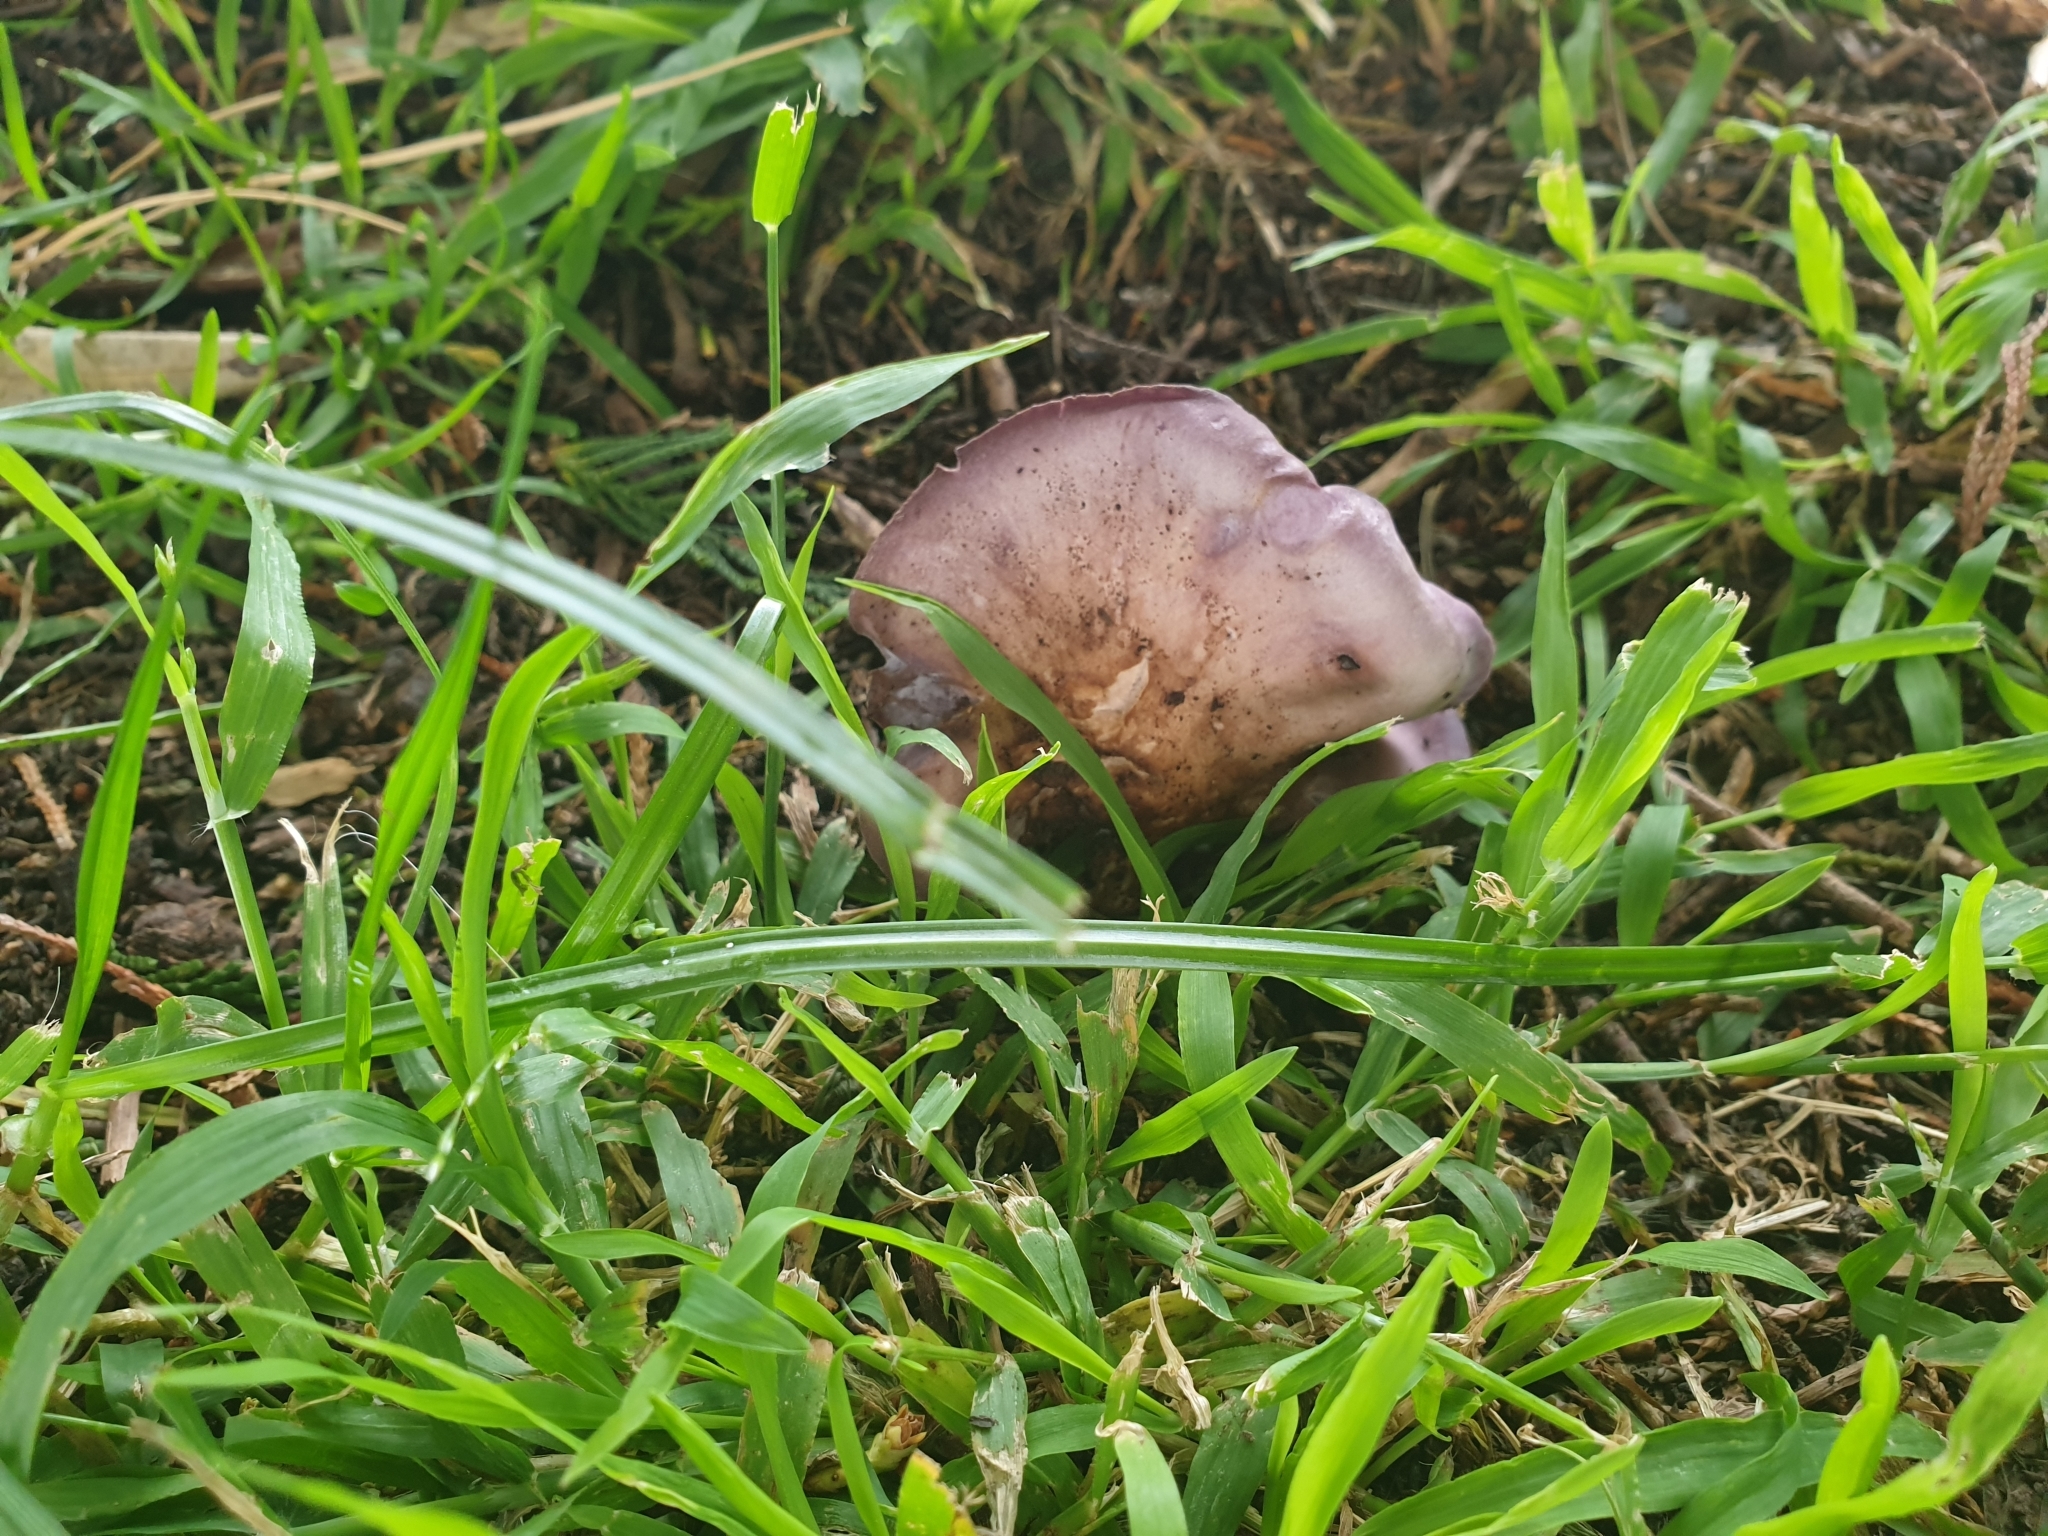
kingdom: Fungi
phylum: Basidiomycota
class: Agaricomycetes
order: Agaricales
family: Tricholomataceae
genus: Collybia
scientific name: Collybia
